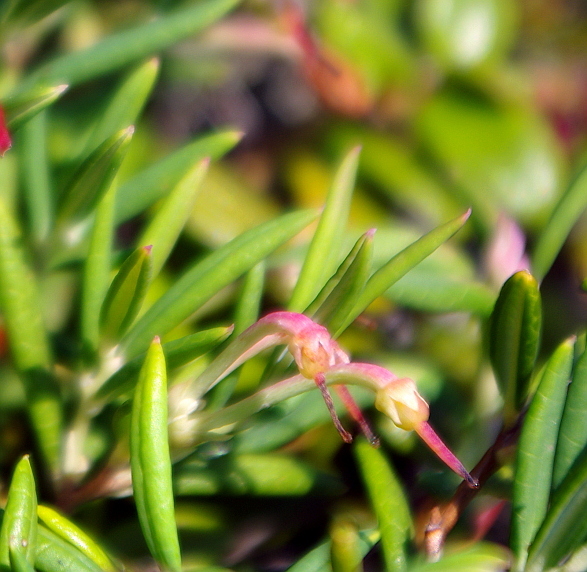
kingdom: Plantae
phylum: Tracheophyta
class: Magnoliopsida
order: Ericales
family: Ericaceae
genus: Andromeda
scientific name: Andromeda polifolia
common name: Bog-rosemary
